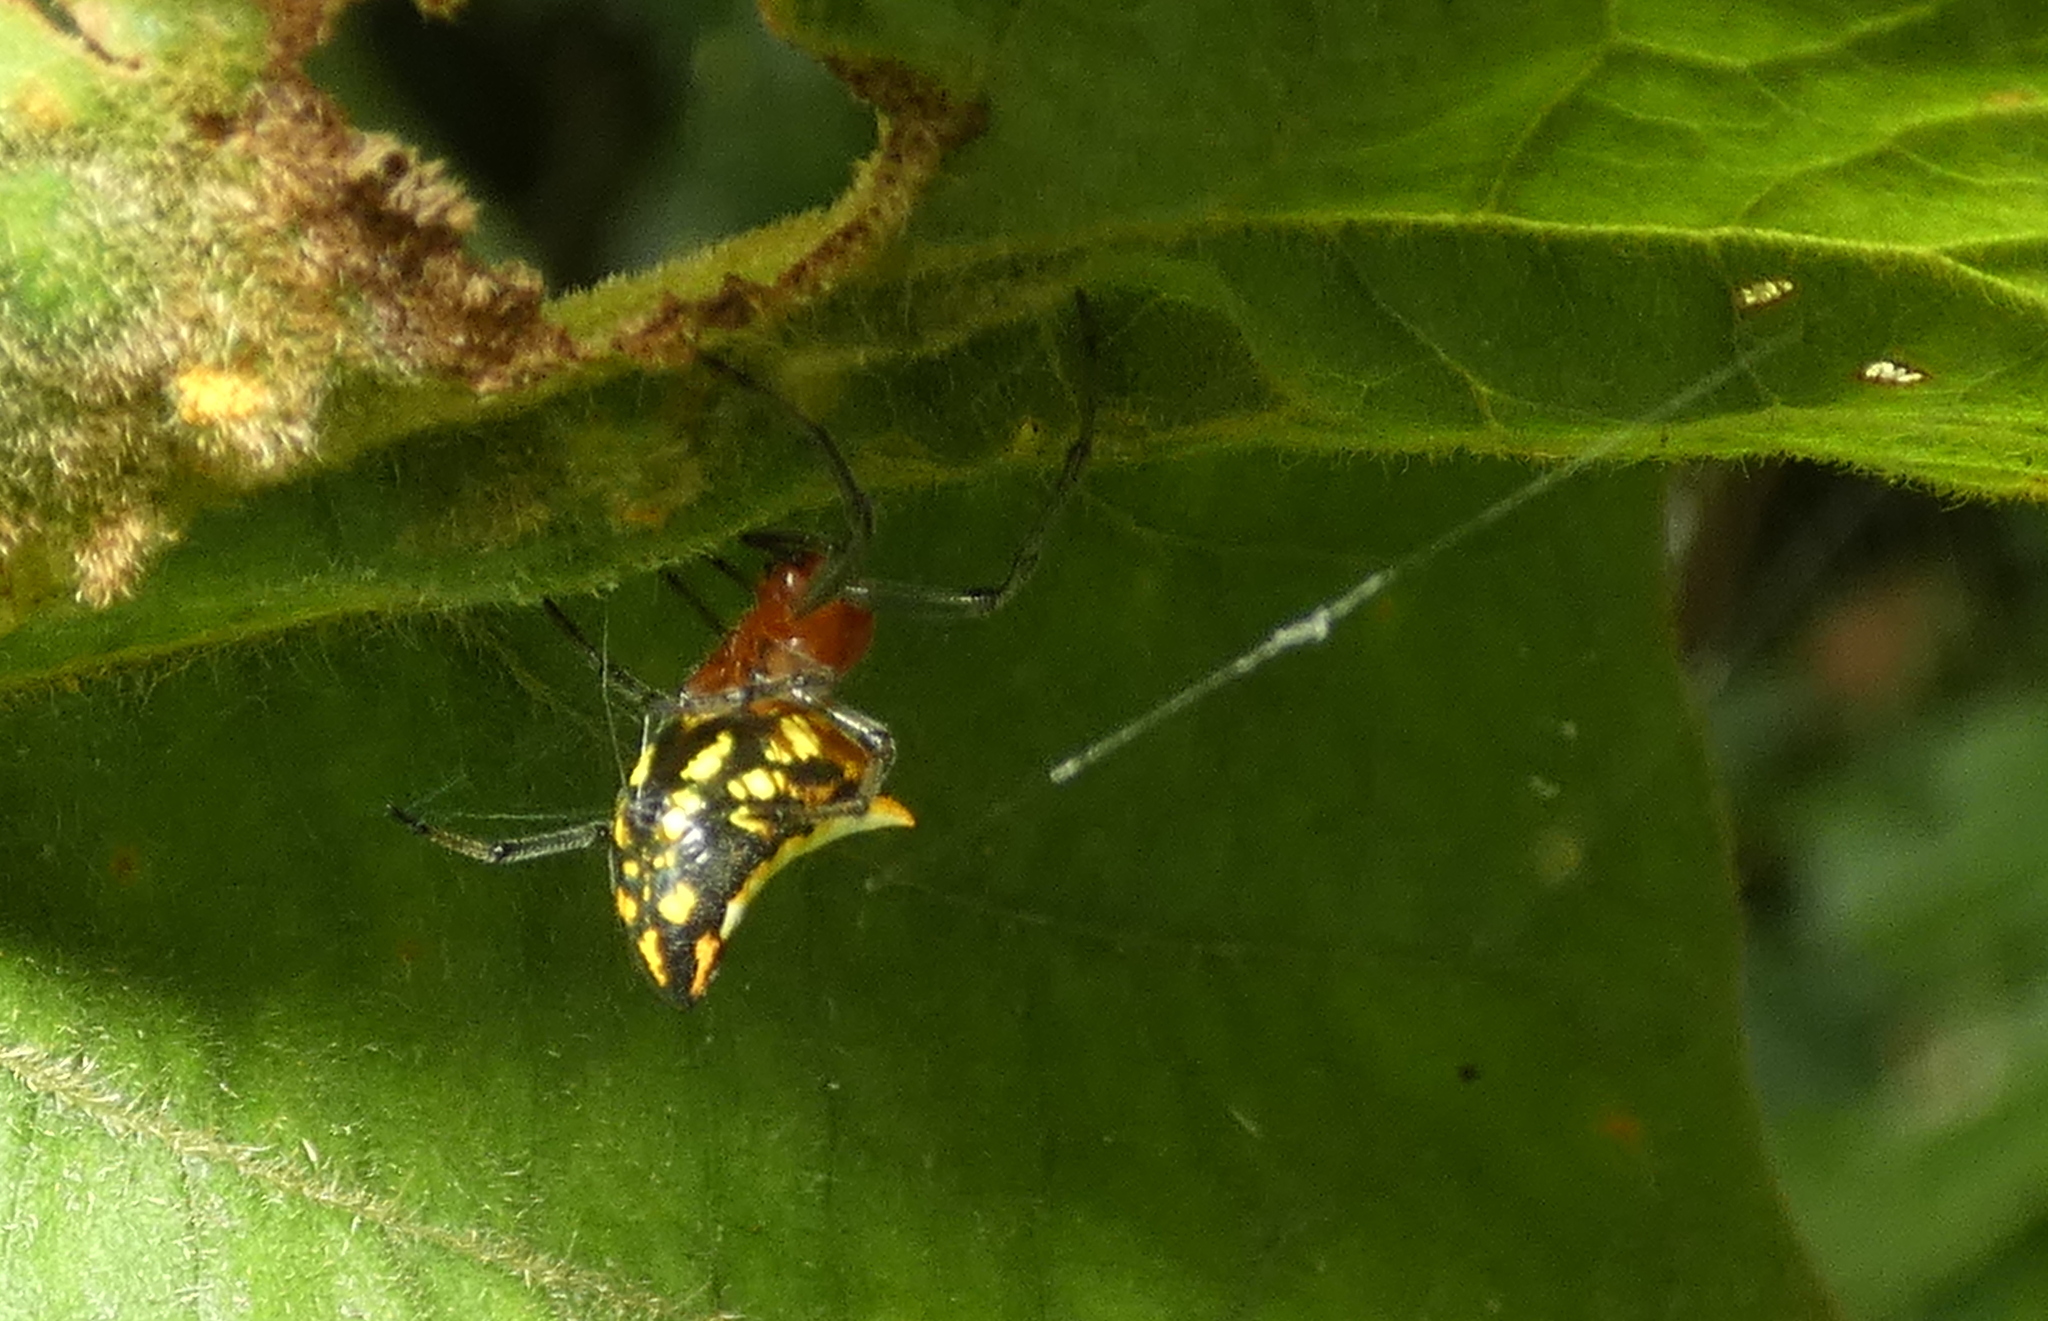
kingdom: Animalia
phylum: Arthropoda
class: Arachnida
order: Araneae
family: Araneidae
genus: Alpaida
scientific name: Alpaida bicornuta
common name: Orb weavers
